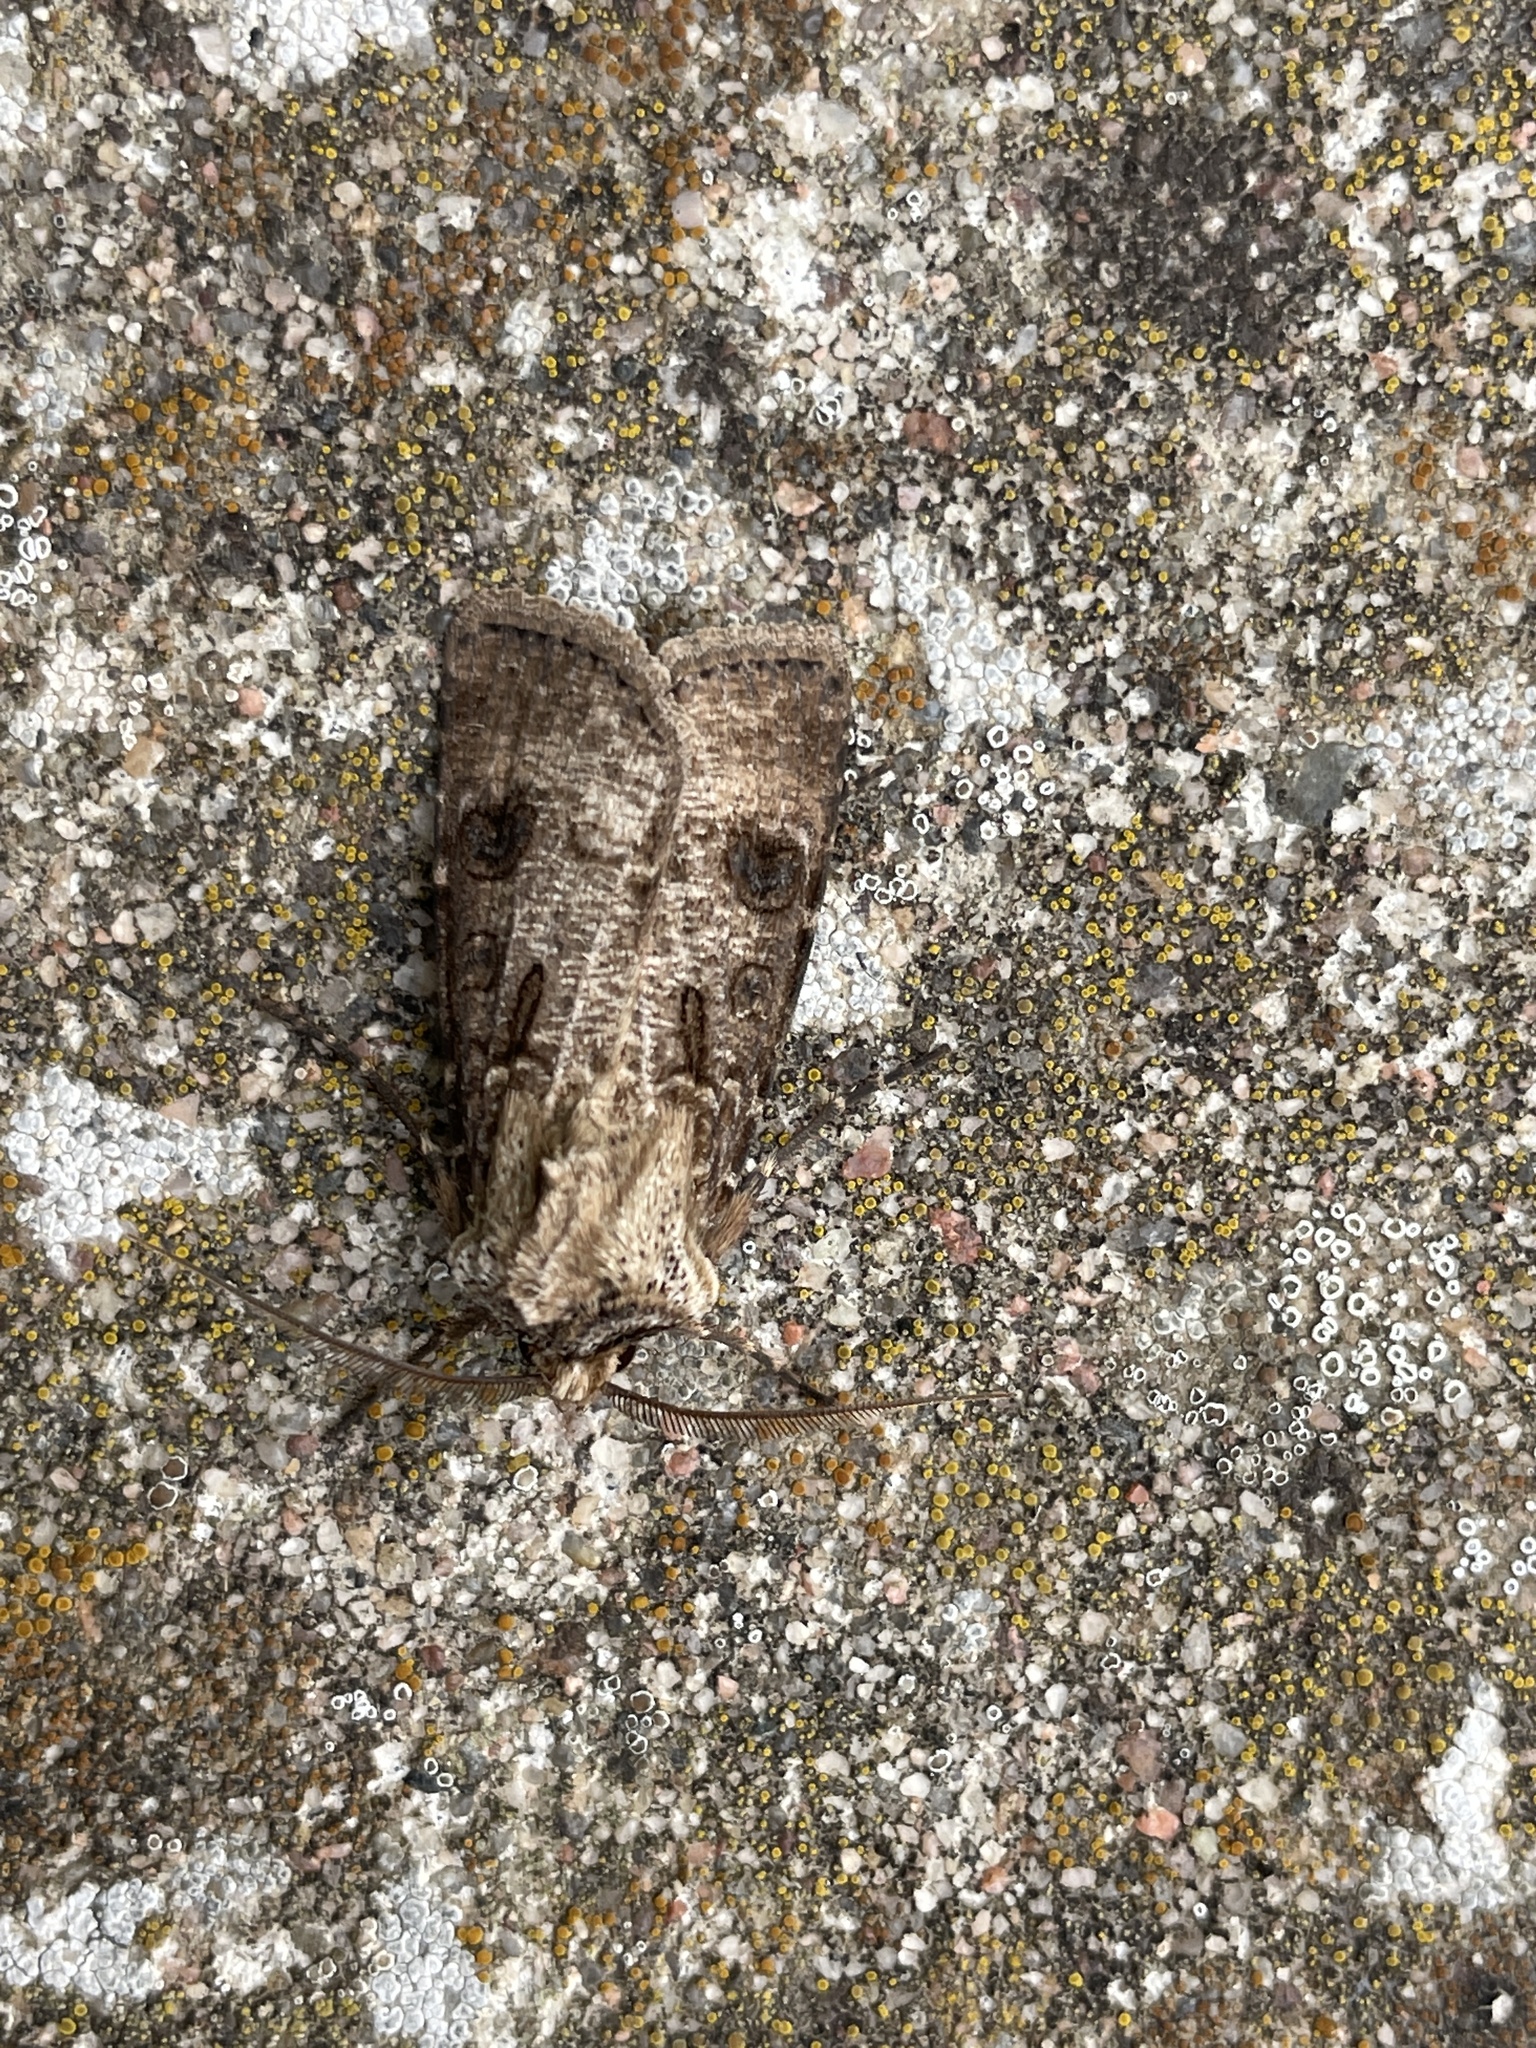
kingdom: Animalia
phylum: Arthropoda
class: Insecta
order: Lepidoptera
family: Noctuidae
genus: Agrotis
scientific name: Agrotis clavis
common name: Heart and club
